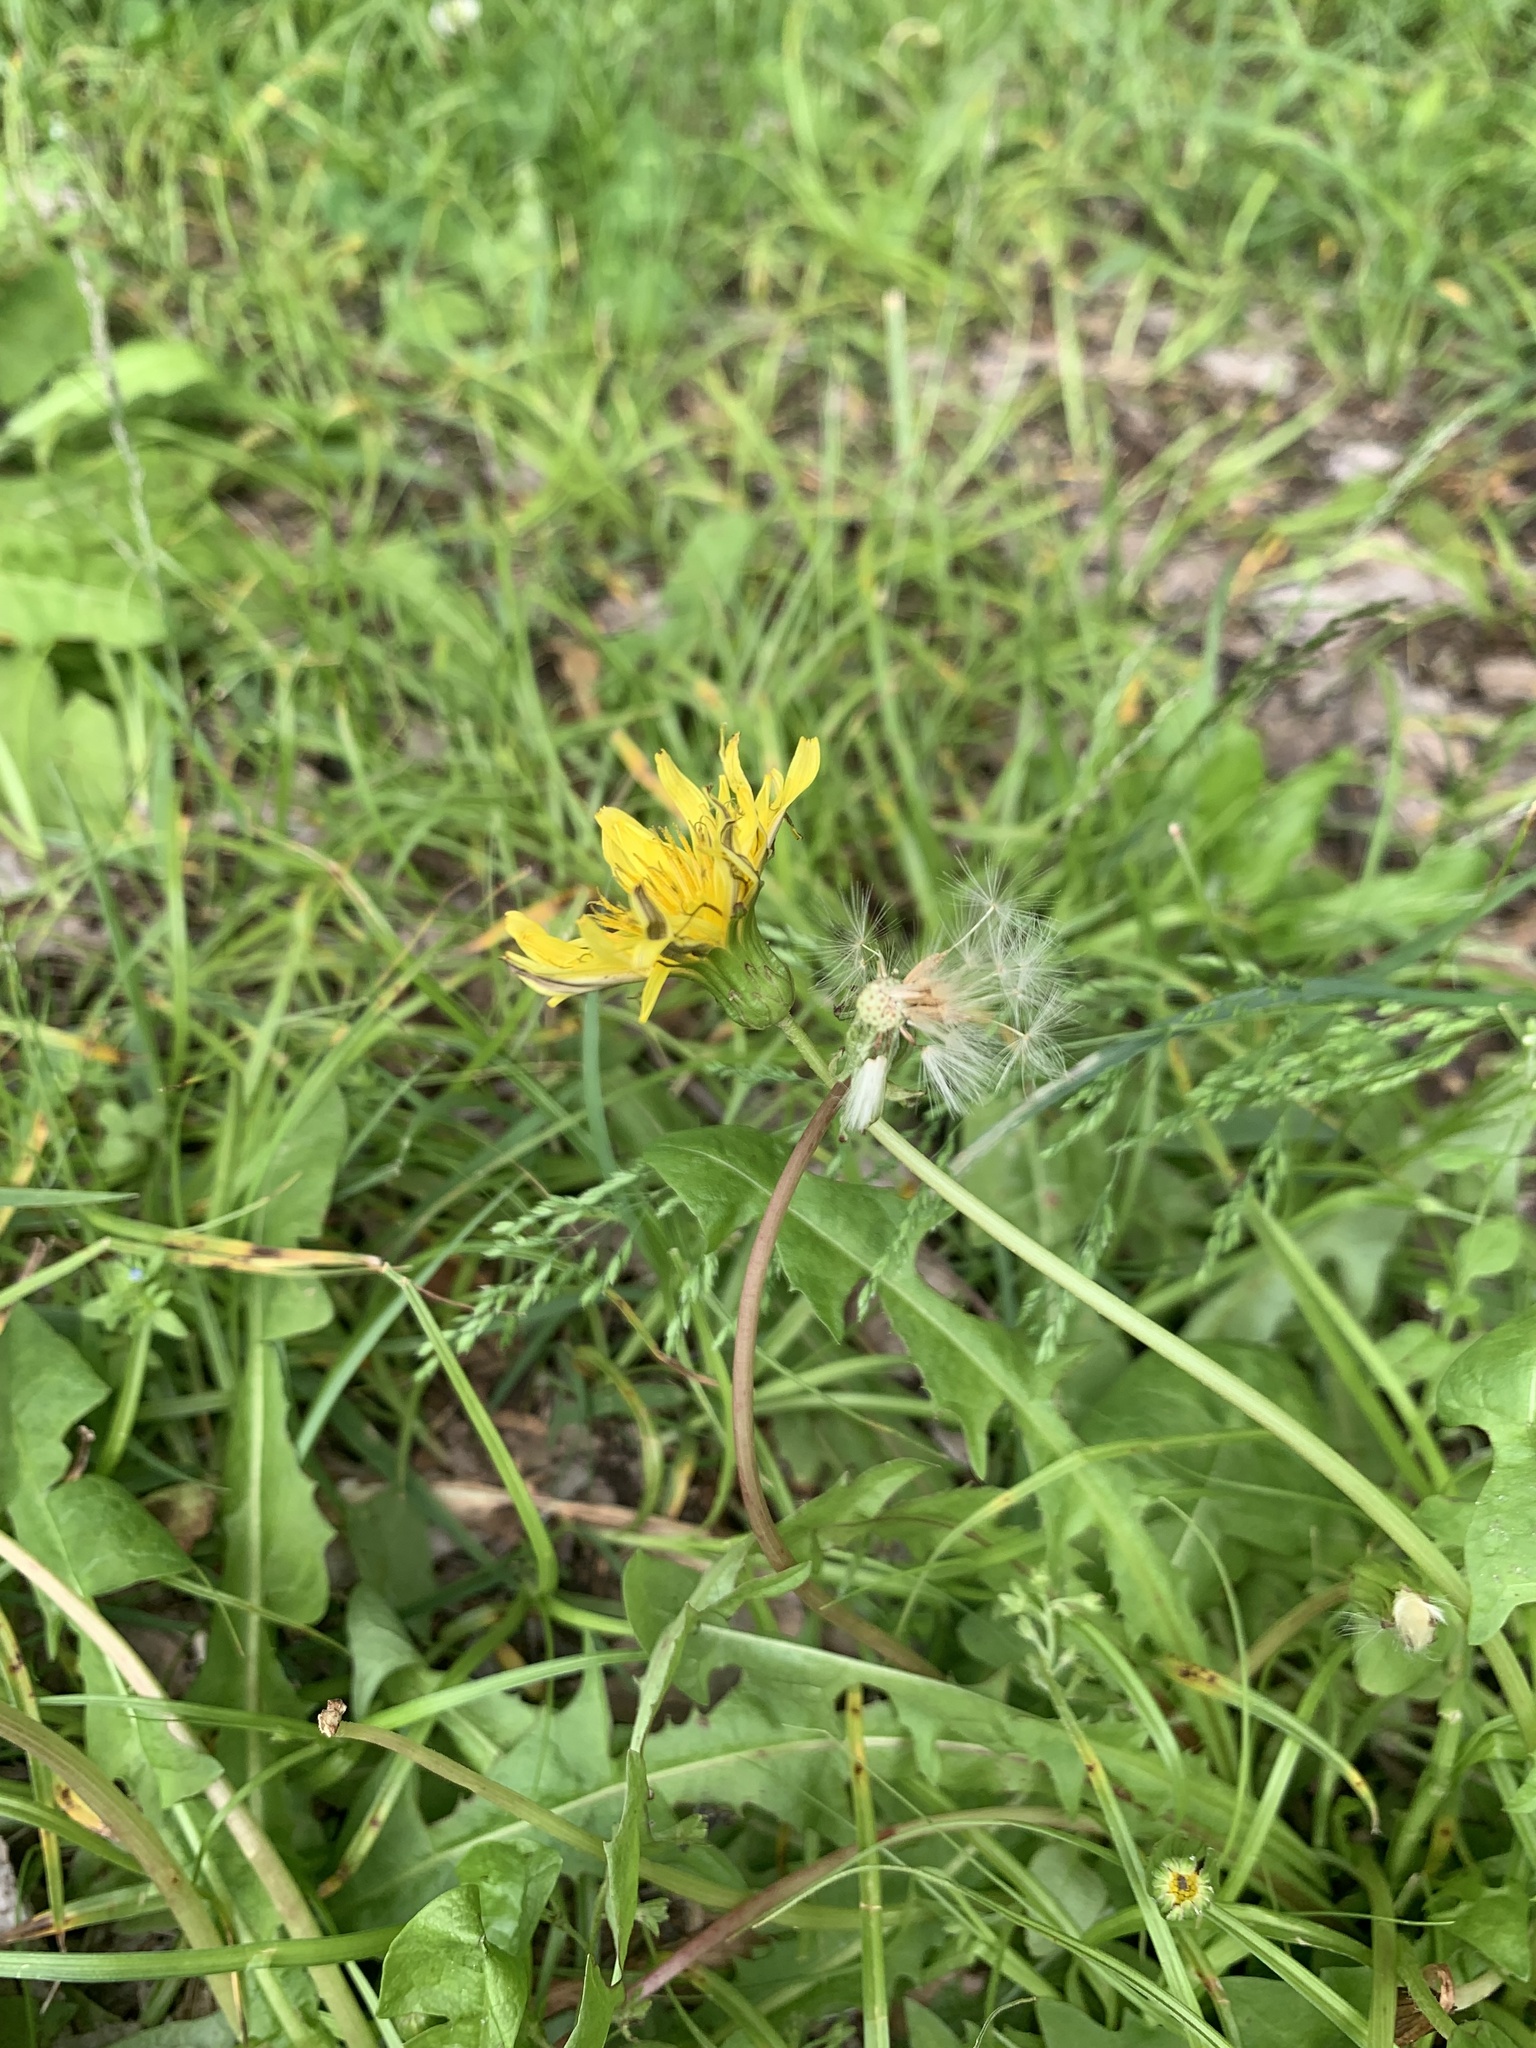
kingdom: Plantae
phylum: Tracheophyta
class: Magnoliopsida
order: Asterales
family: Asteraceae
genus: Taraxacum
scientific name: Taraxacum japonicum
